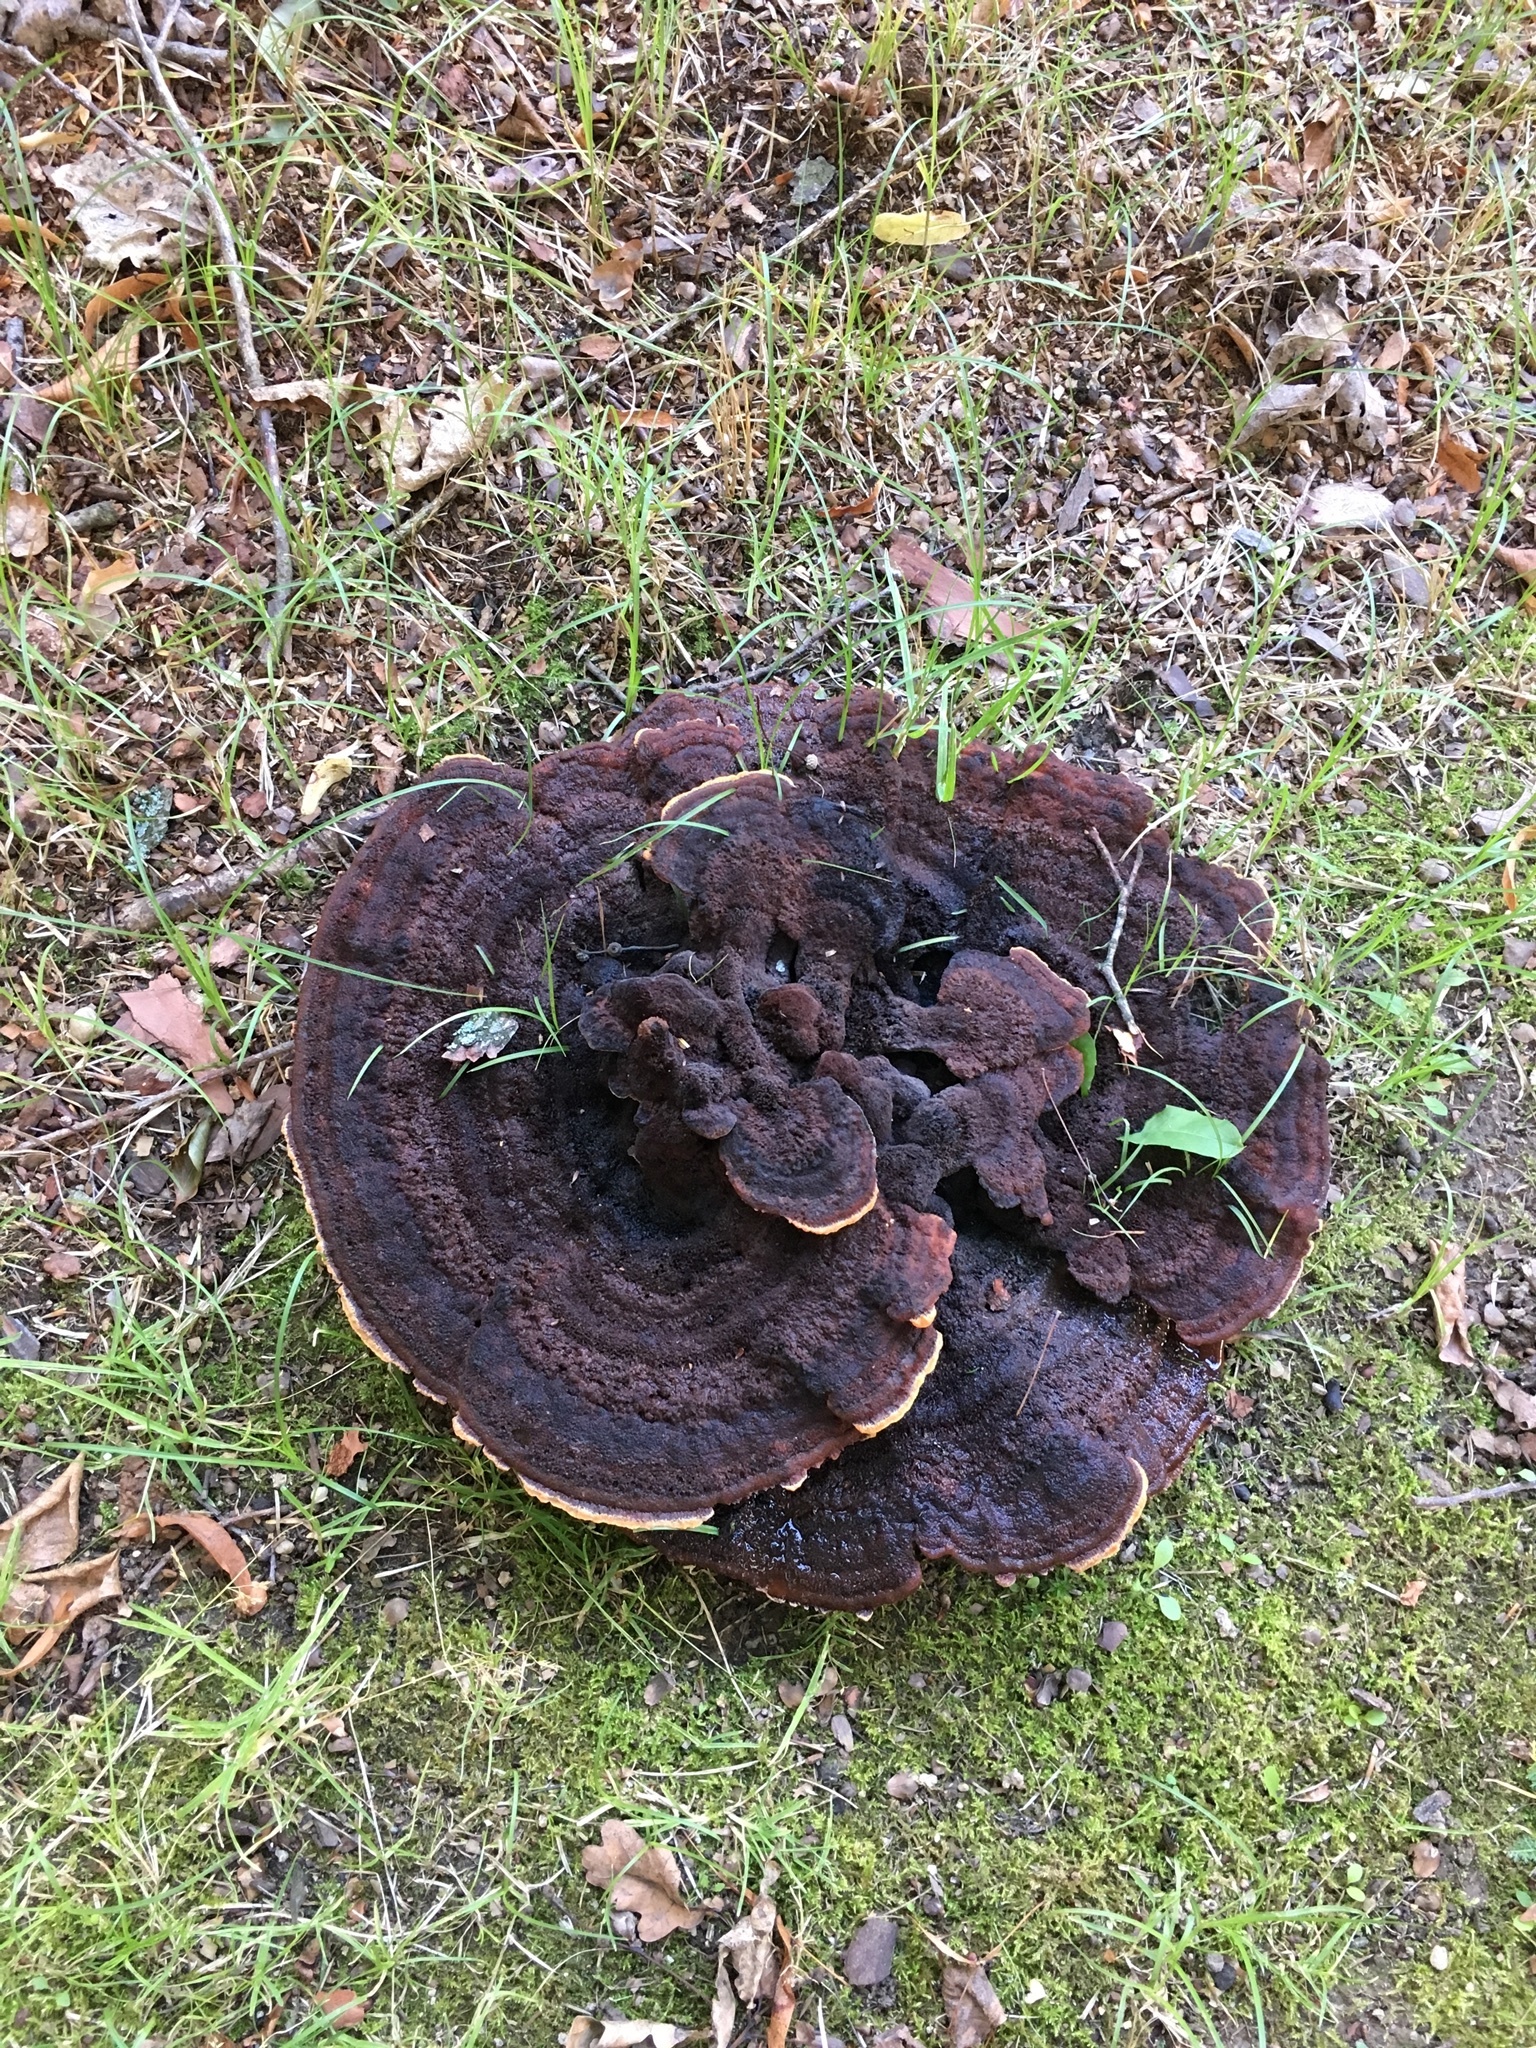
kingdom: Fungi
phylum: Basidiomycota
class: Agaricomycetes
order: Polyporales
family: Laetiporaceae
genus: Phaeolus
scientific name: Phaeolus schweinitzii
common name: Dyer's mazegill
